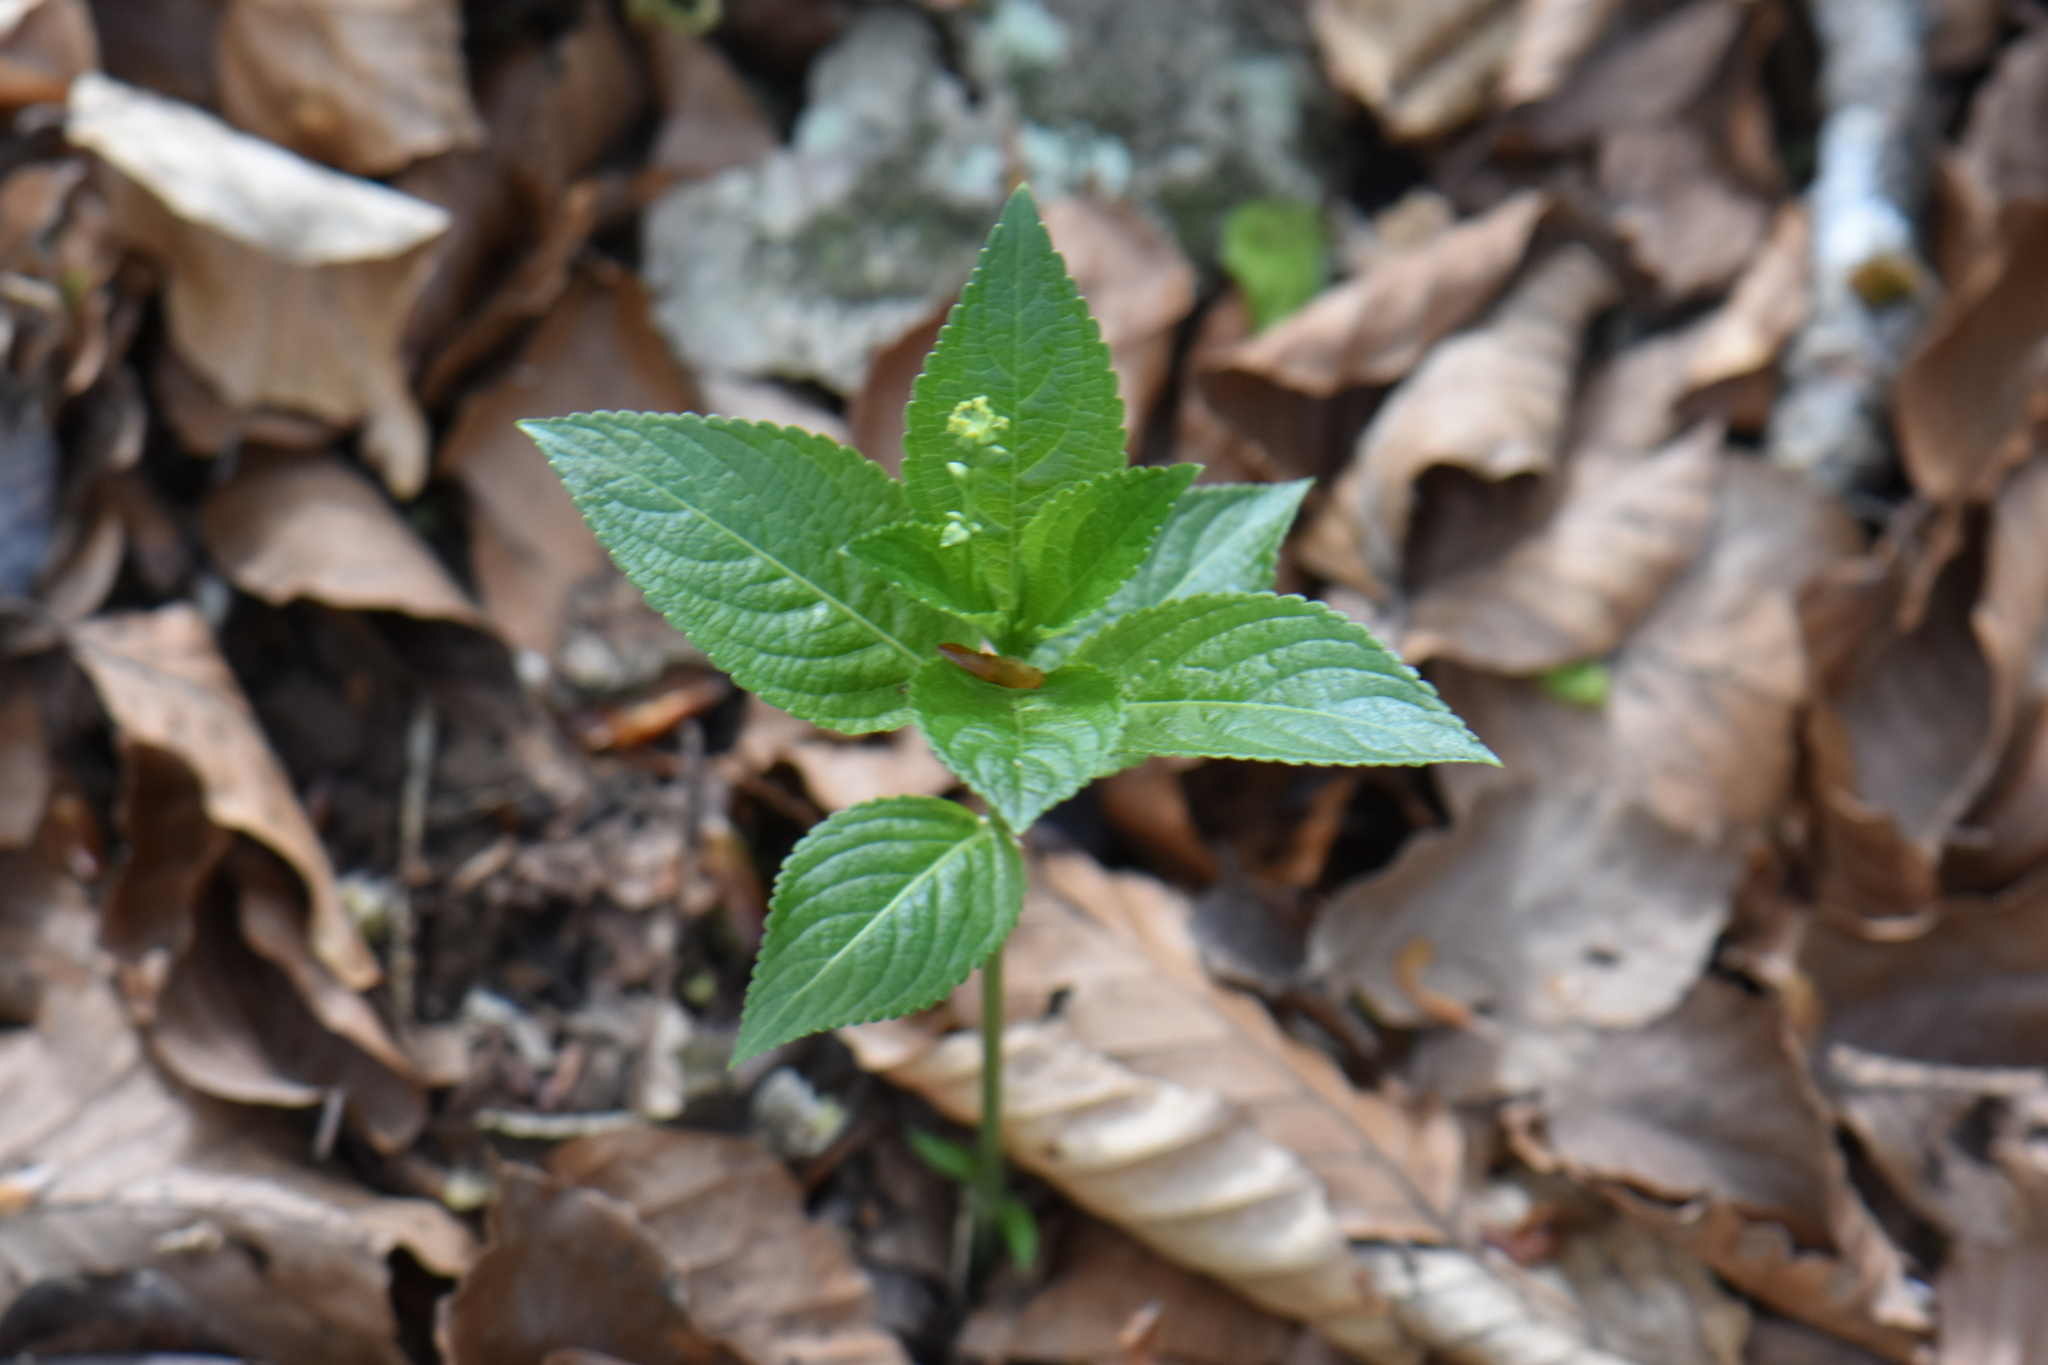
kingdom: Plantae
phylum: Tracheophyta
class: Magnoliopsida
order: Malpighiales
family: Euphorbiaceae
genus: Mercurialis
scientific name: Mercurialis perennis
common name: Dog mercury
